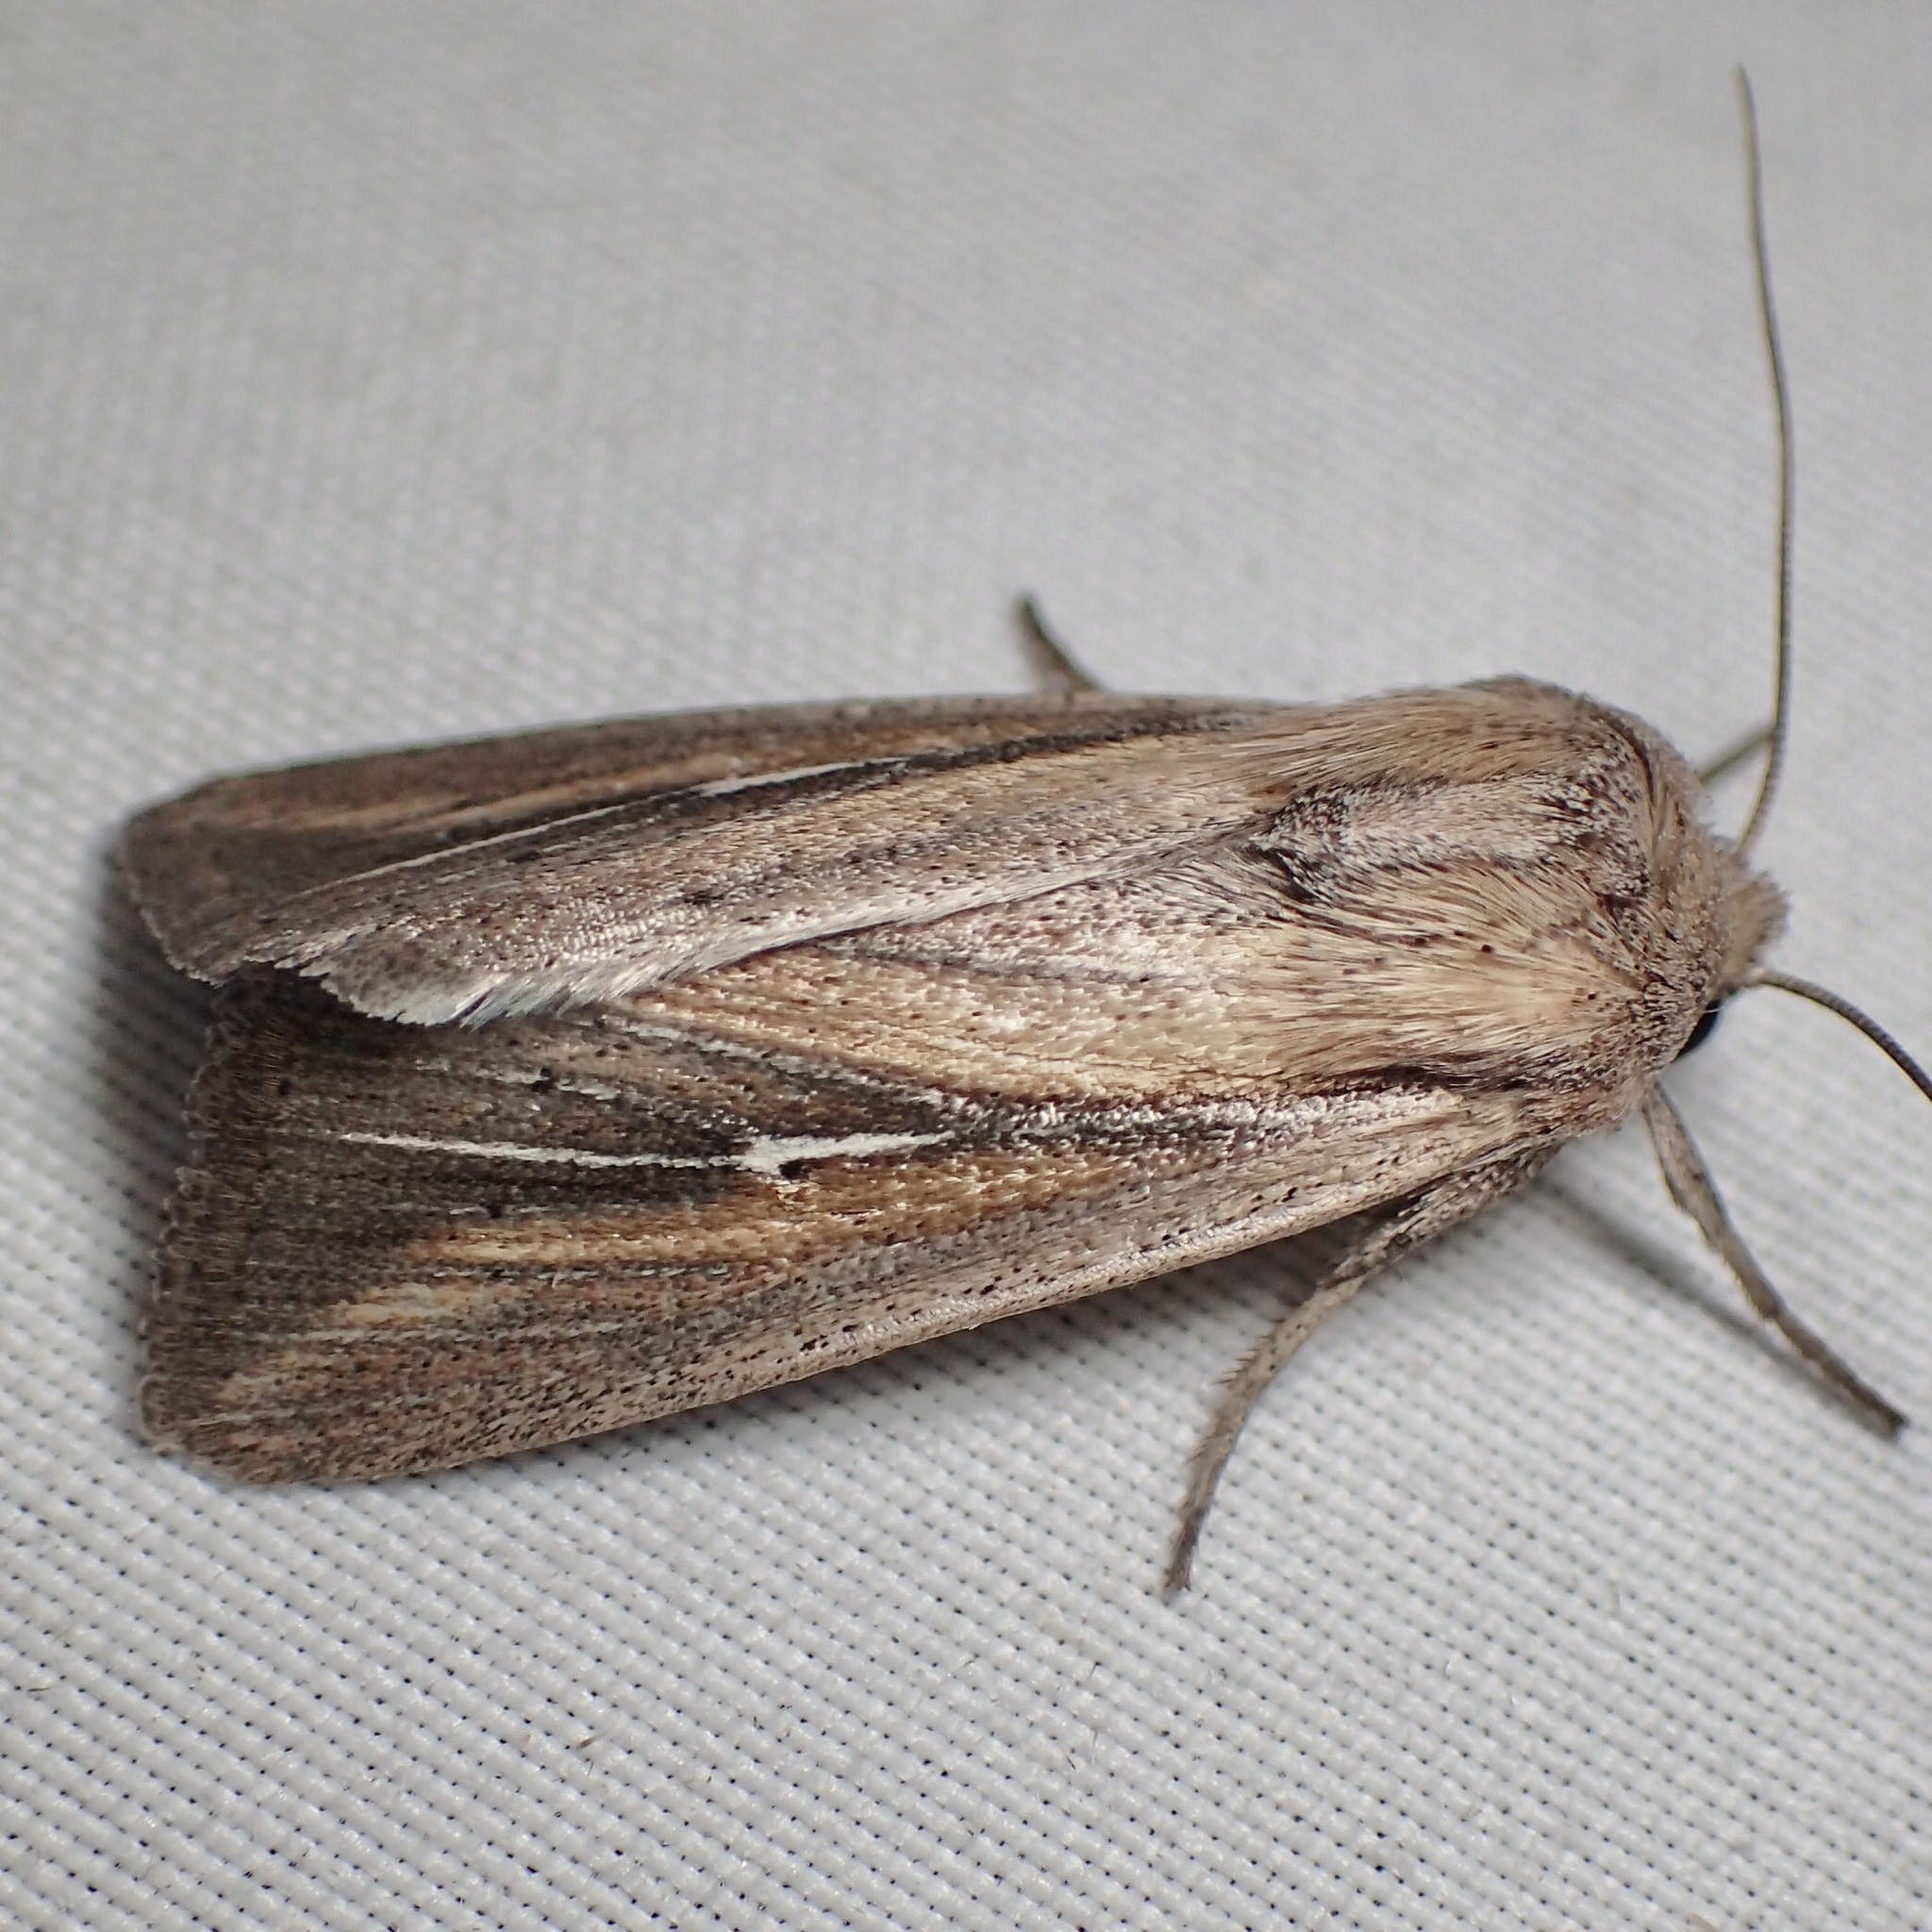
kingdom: Animalia
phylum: Arthropoda
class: Insecta
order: Lepidoptera
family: Noctuidae
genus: Leucania
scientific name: Leucania imperfecta
